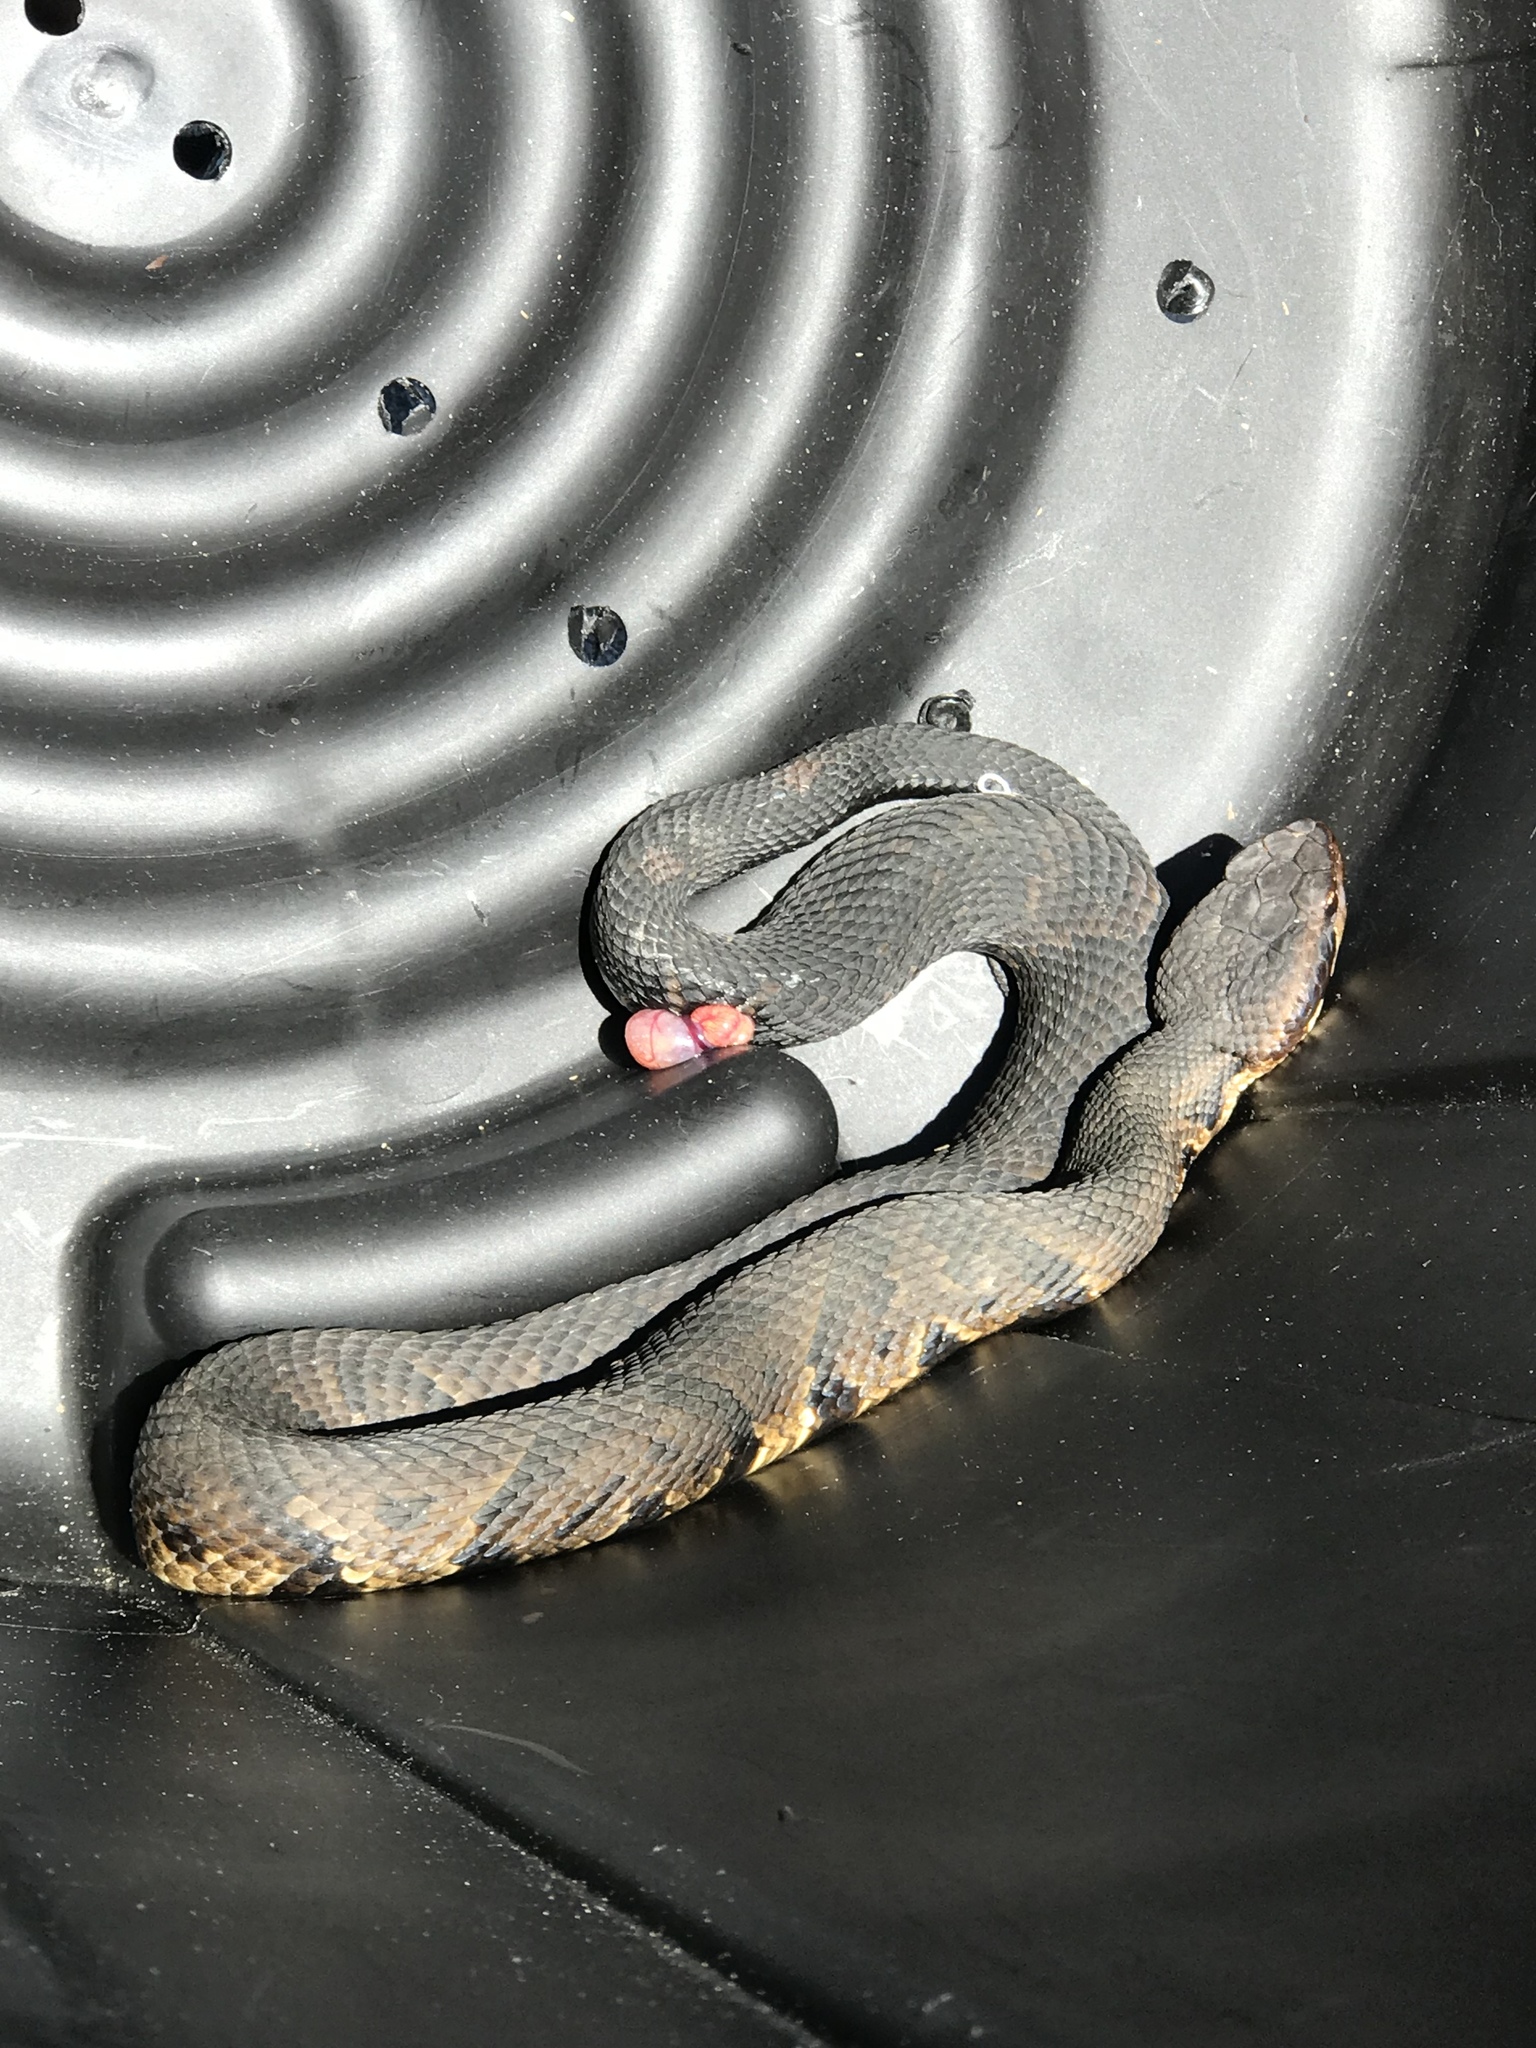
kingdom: Animalia
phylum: Chordata
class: Squamata
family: Viperidae
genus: Agkistrodon
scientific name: Agkistrodon piscivorus
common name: Cottonmouth
